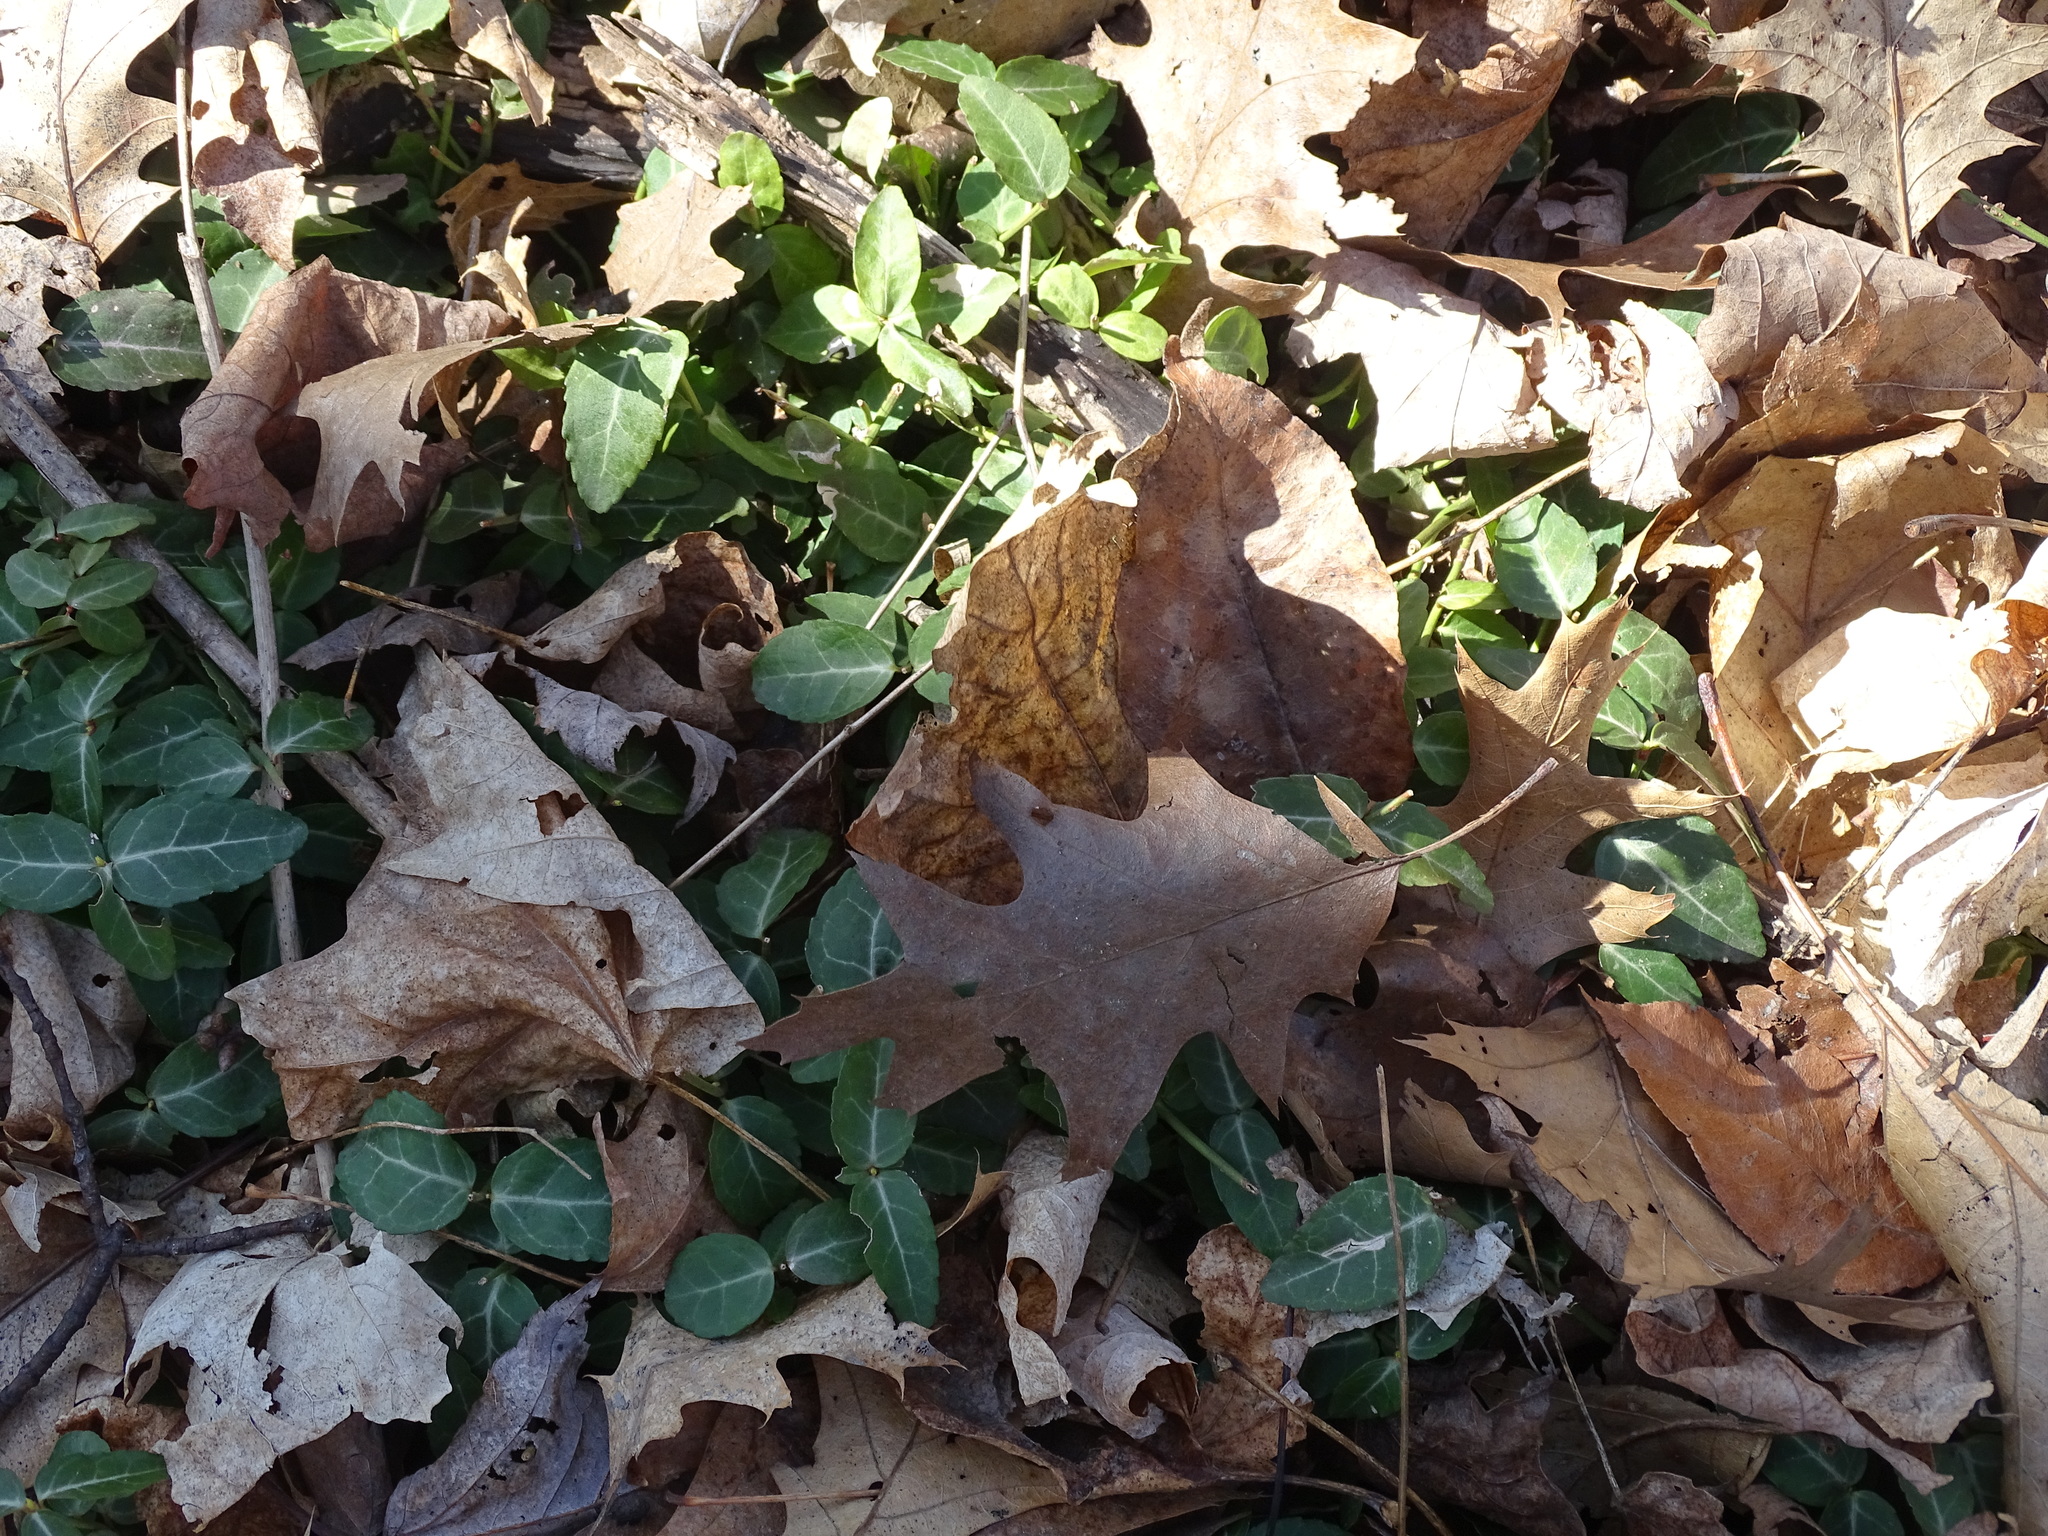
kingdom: Plantae
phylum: Tracheophyta
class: Magnoliopsida
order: Celastrales
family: Celastraceae
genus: Euonymus
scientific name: Euonymus fortunei
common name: Climbing euonymus
